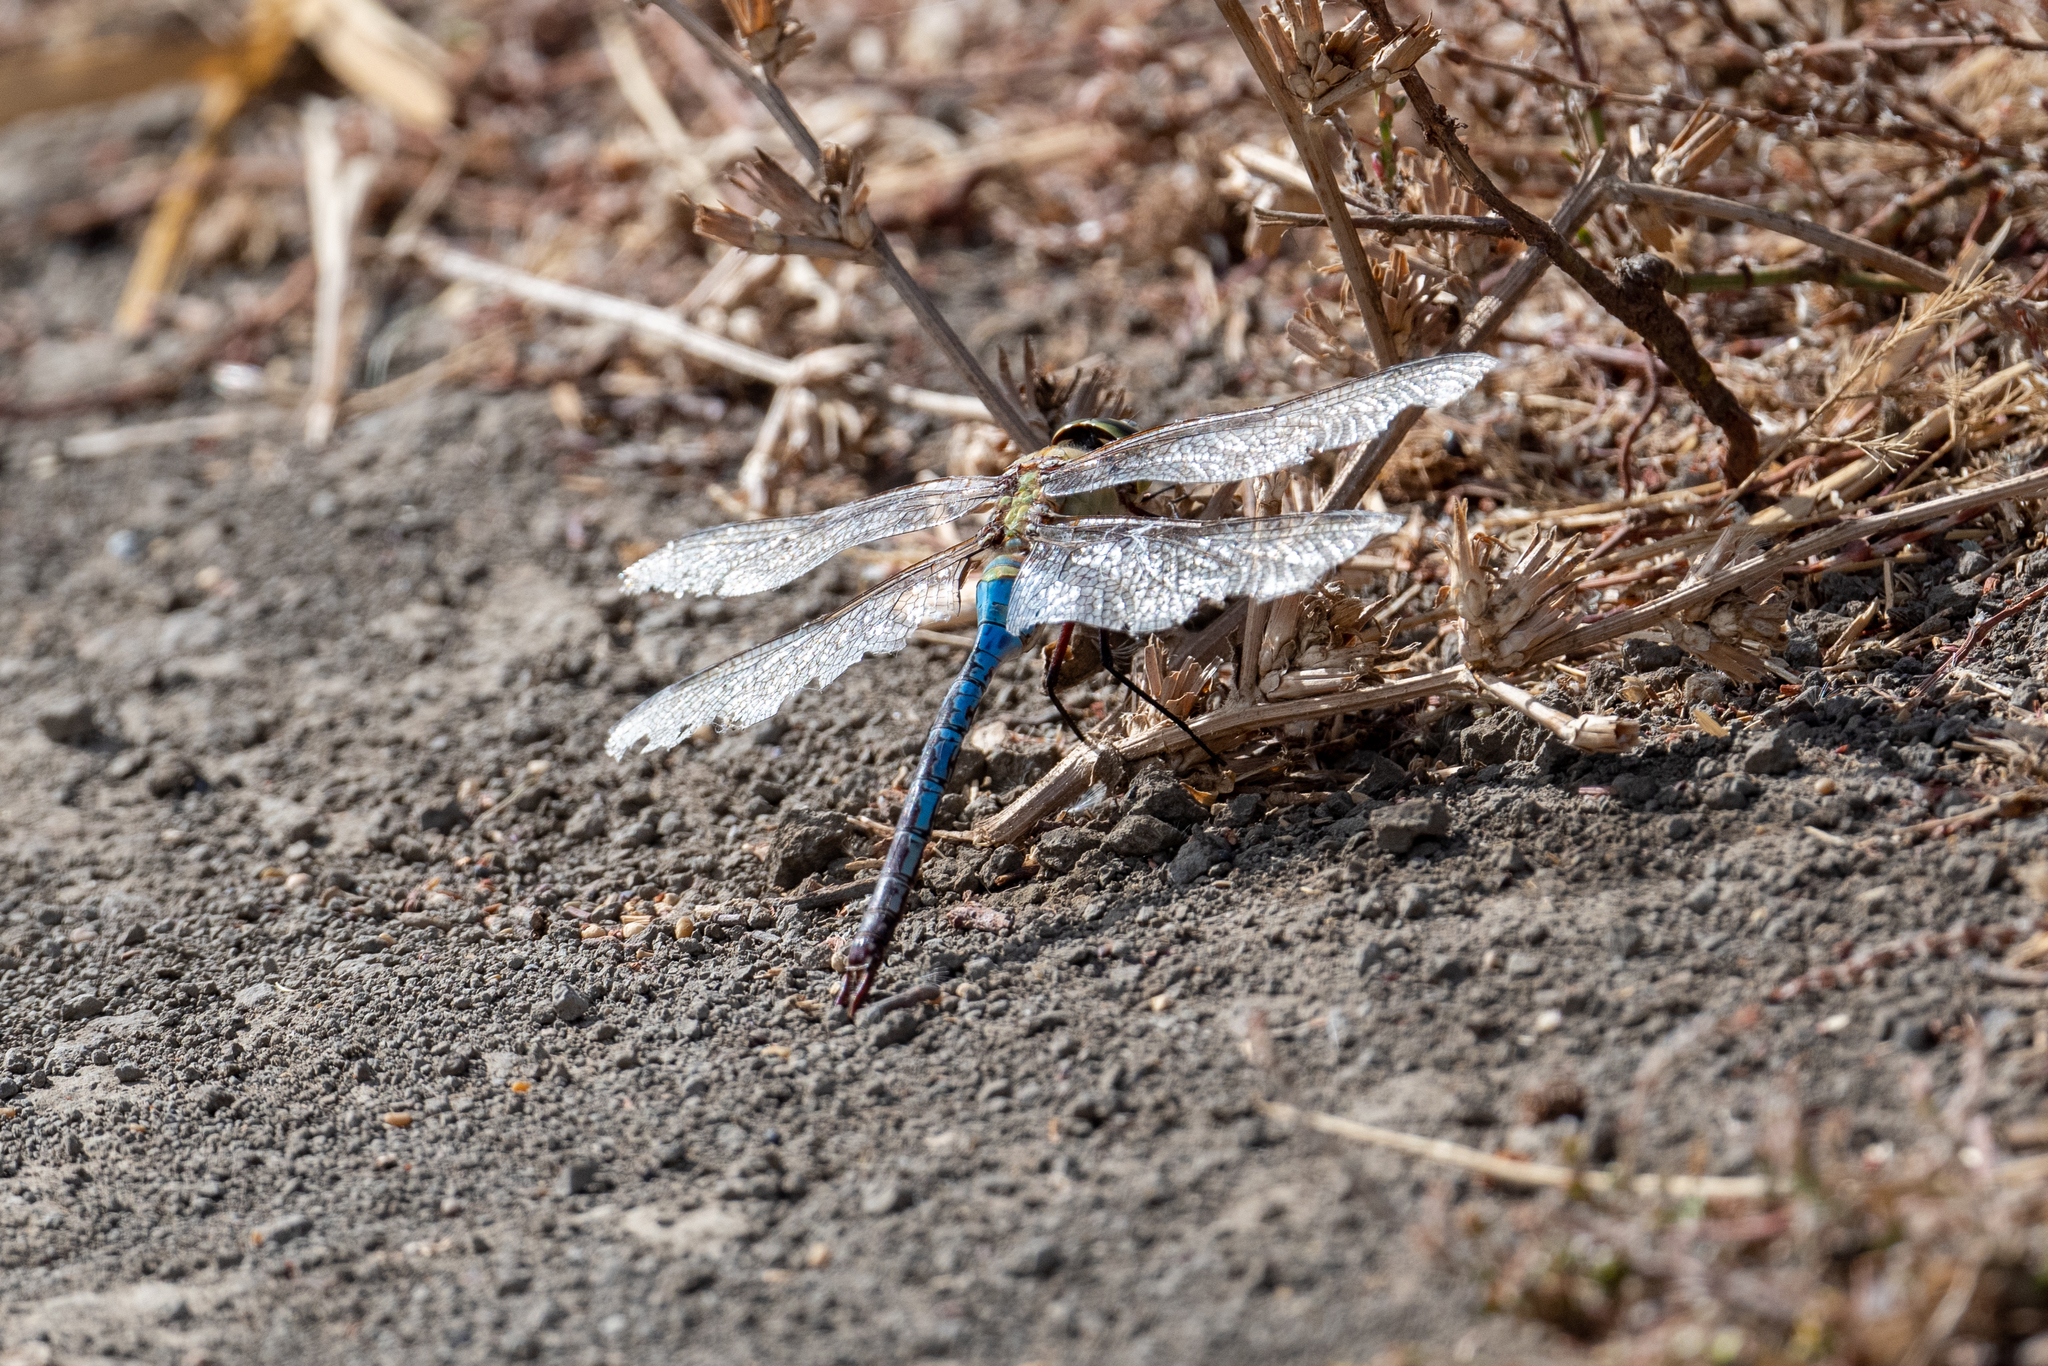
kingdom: Animalia
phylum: Arthropoda
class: Insecta
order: Odonata
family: Aeshnidae
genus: Anax
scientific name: Anax junius
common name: Common green darner
